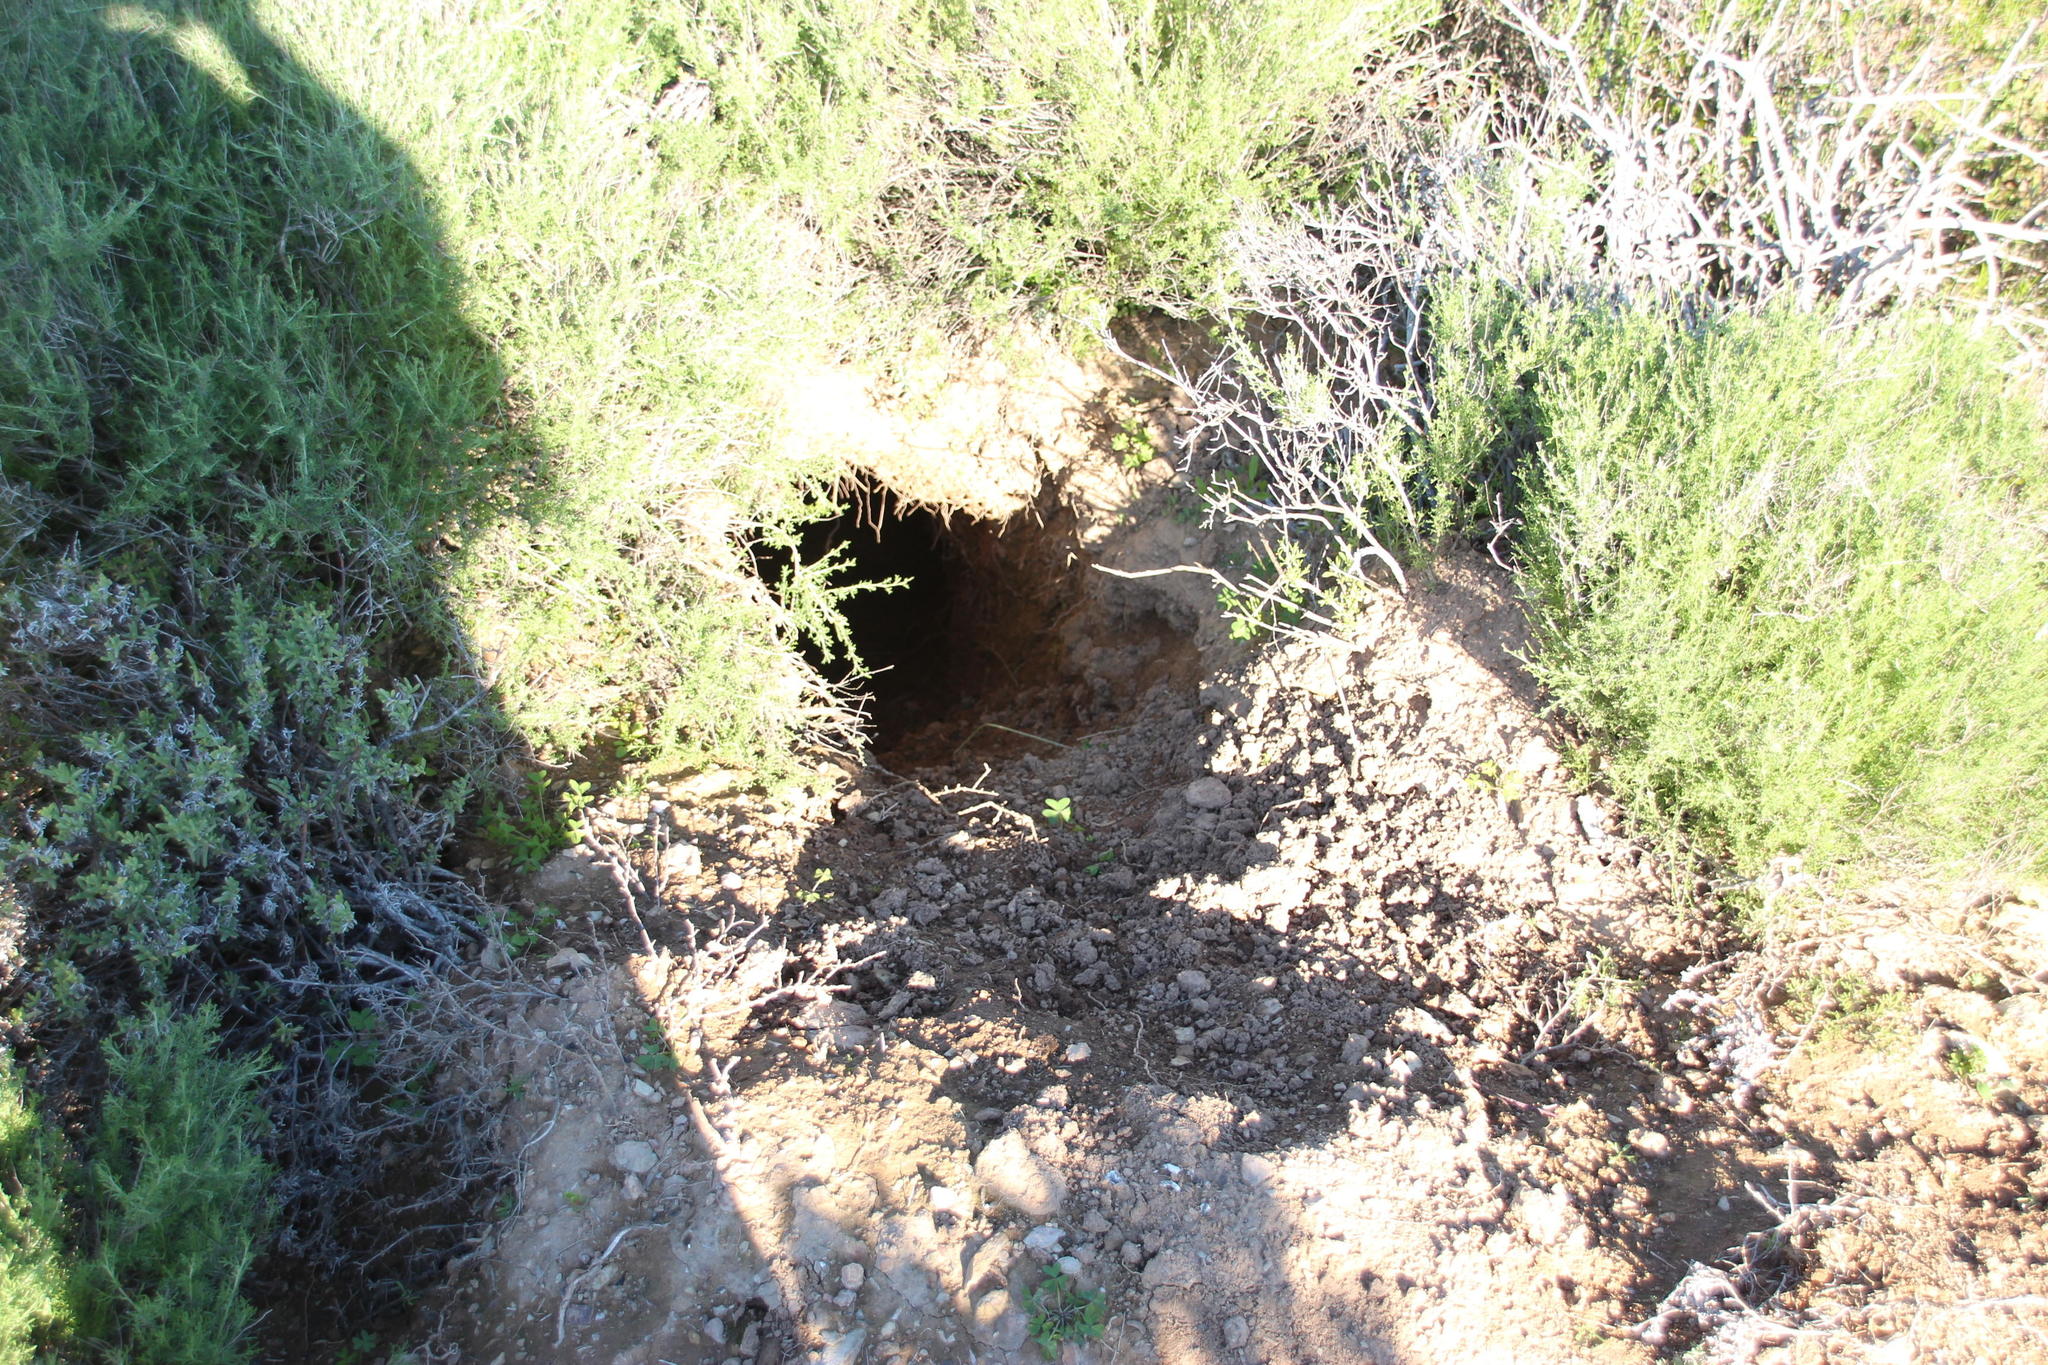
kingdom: Animalia
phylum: Chordata
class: Mammalia
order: Rodentia
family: Hystricidae
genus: Hystrix
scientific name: Hystrix africaeaustralis
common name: Cape porcupine
